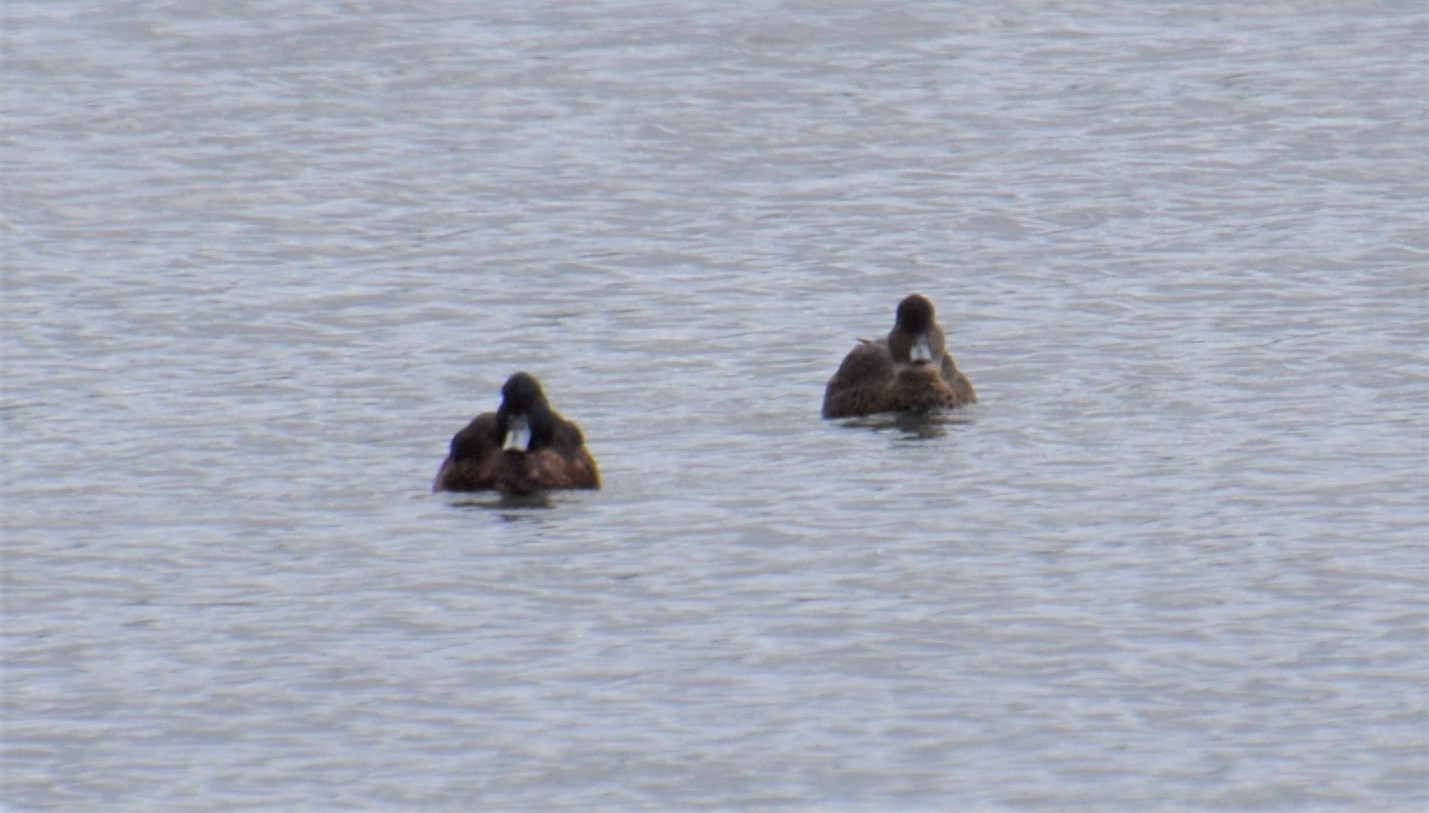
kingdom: Animalia
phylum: Chordata
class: Aves
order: Anseriformes
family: Anatidae
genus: Anas
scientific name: Anas castanea
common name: Chestnut teal
